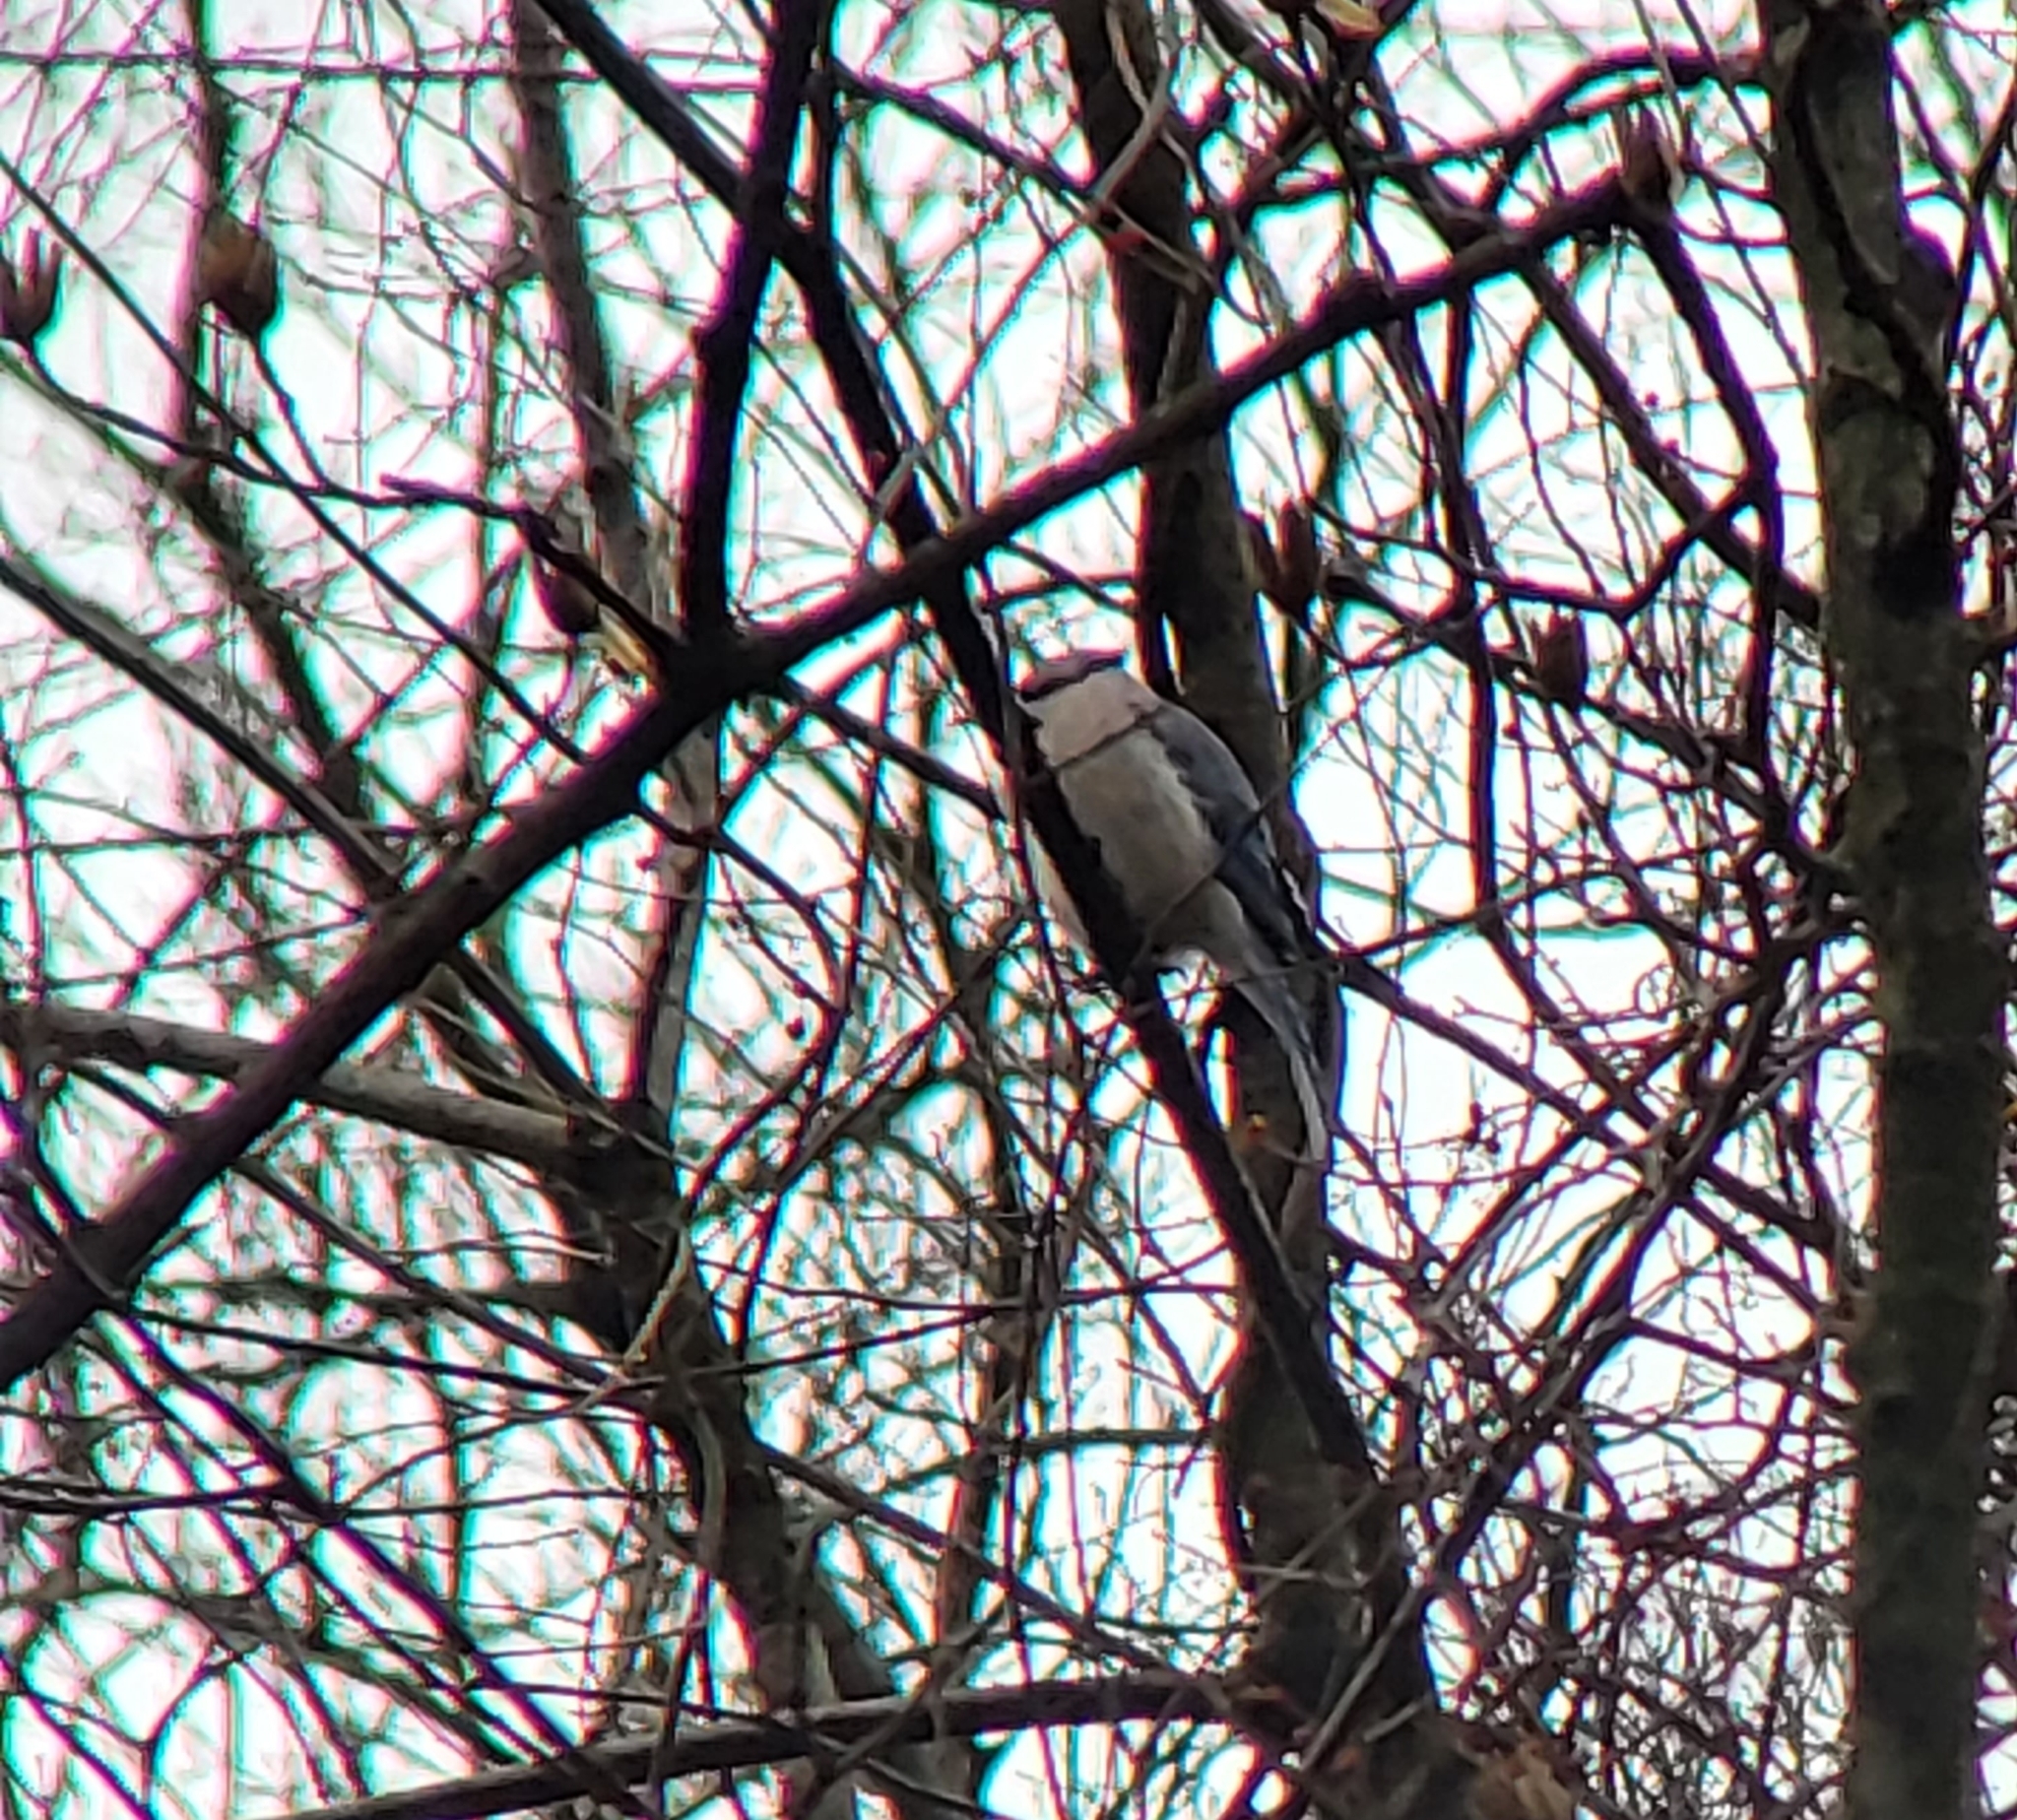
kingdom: Animalia
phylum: Chordata
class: Aves
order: Passeriformes
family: Corvidae
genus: Cyanocitta
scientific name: Cyanocitta cristata
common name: Blue jay
